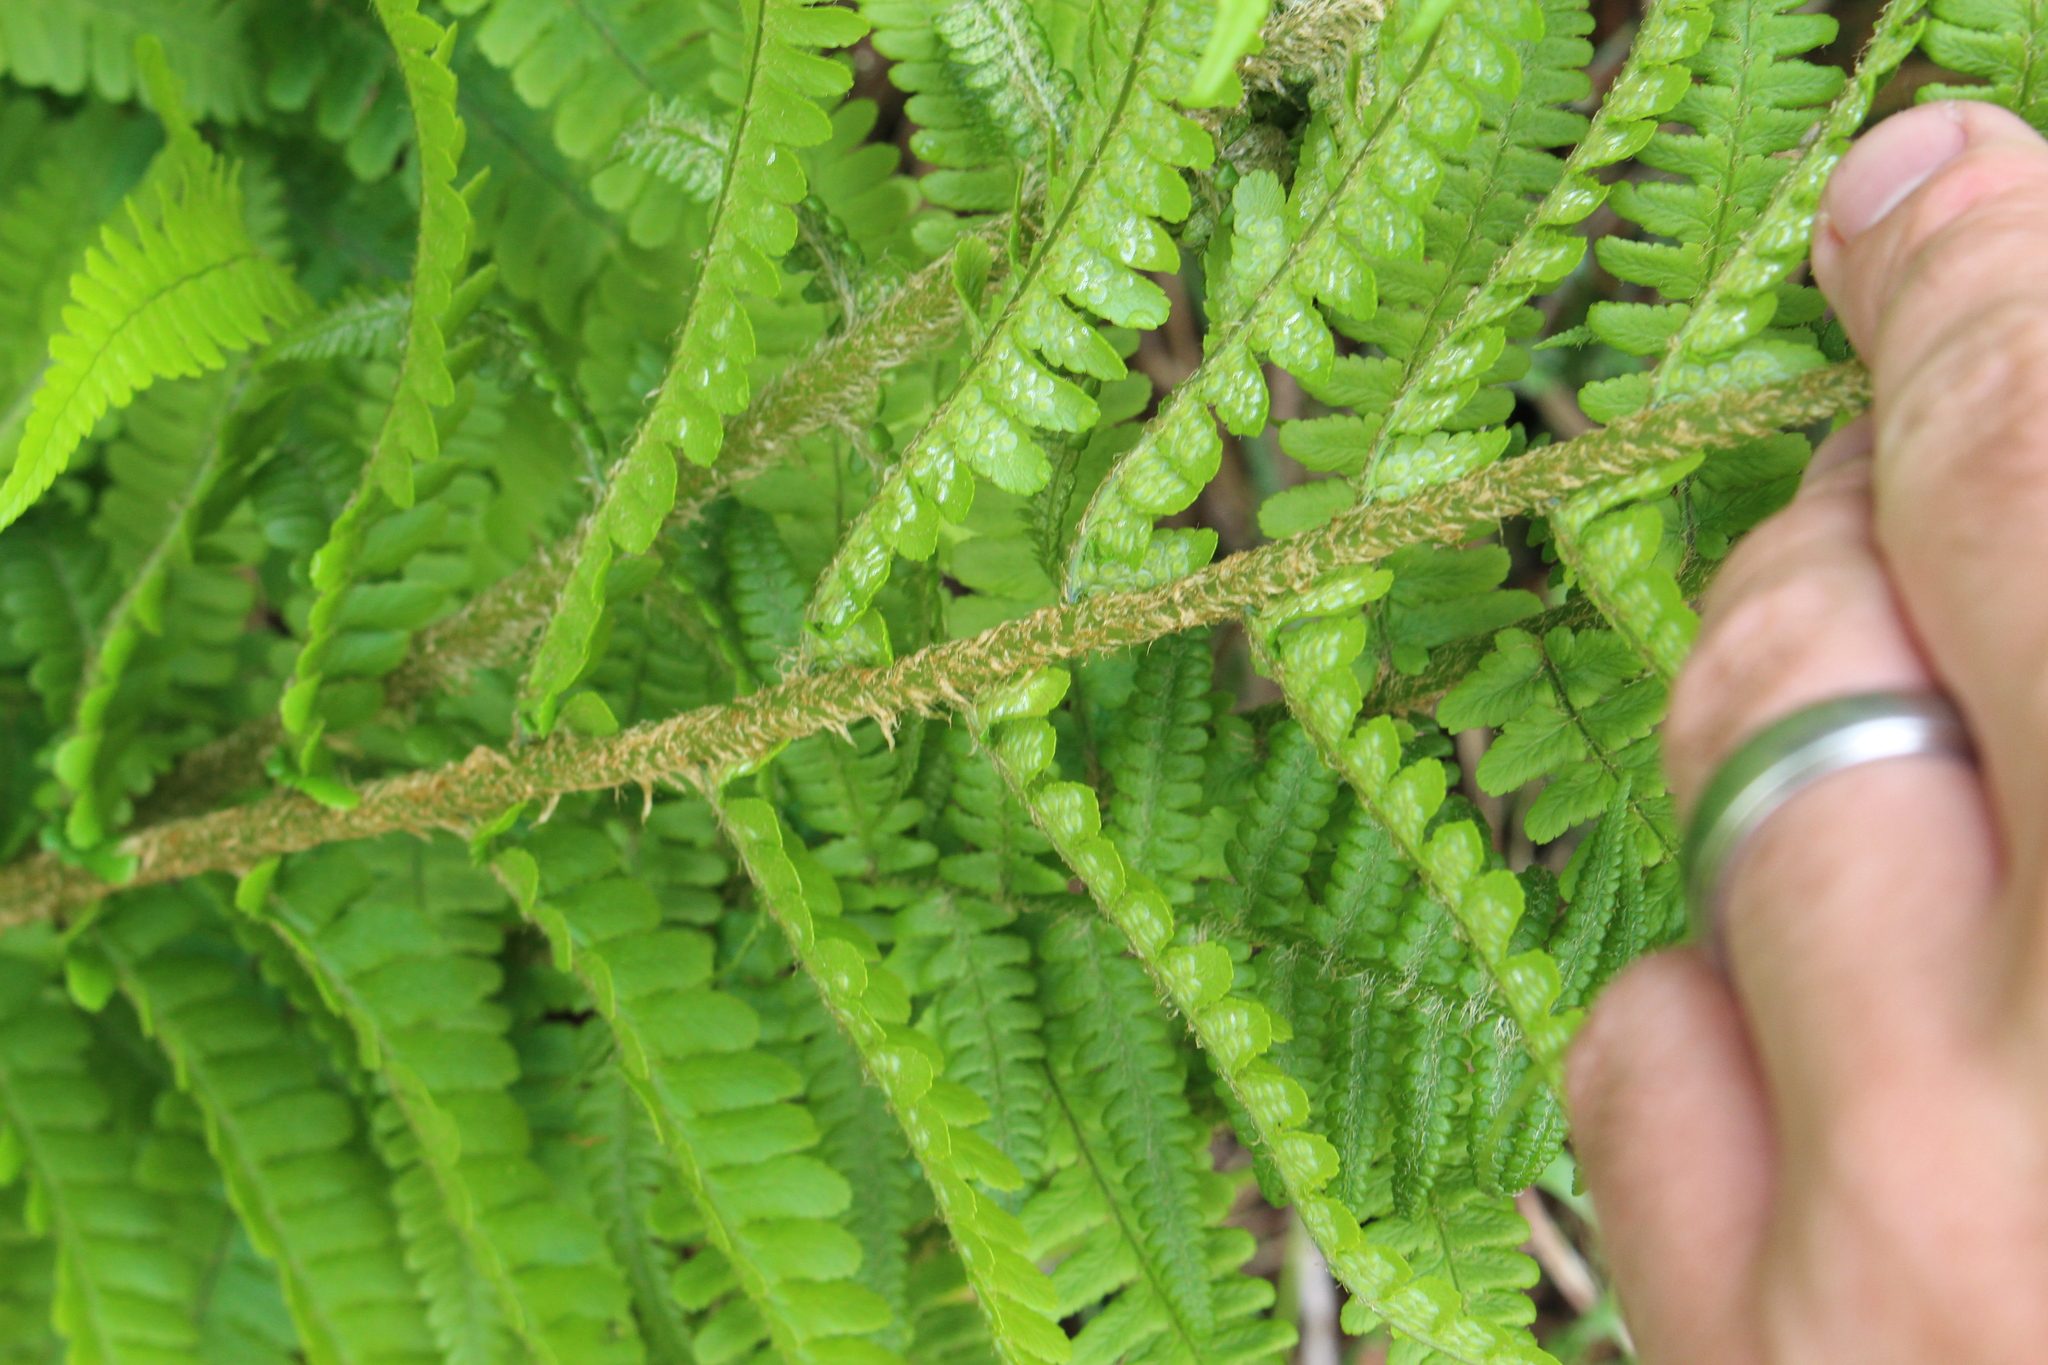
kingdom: Plantae
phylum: Tracheophyta
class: Polypodiopsida
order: Polypodiales
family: Dryopteridaceae
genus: Dryopteris
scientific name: Dryopteris filix-mas
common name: Male fern
